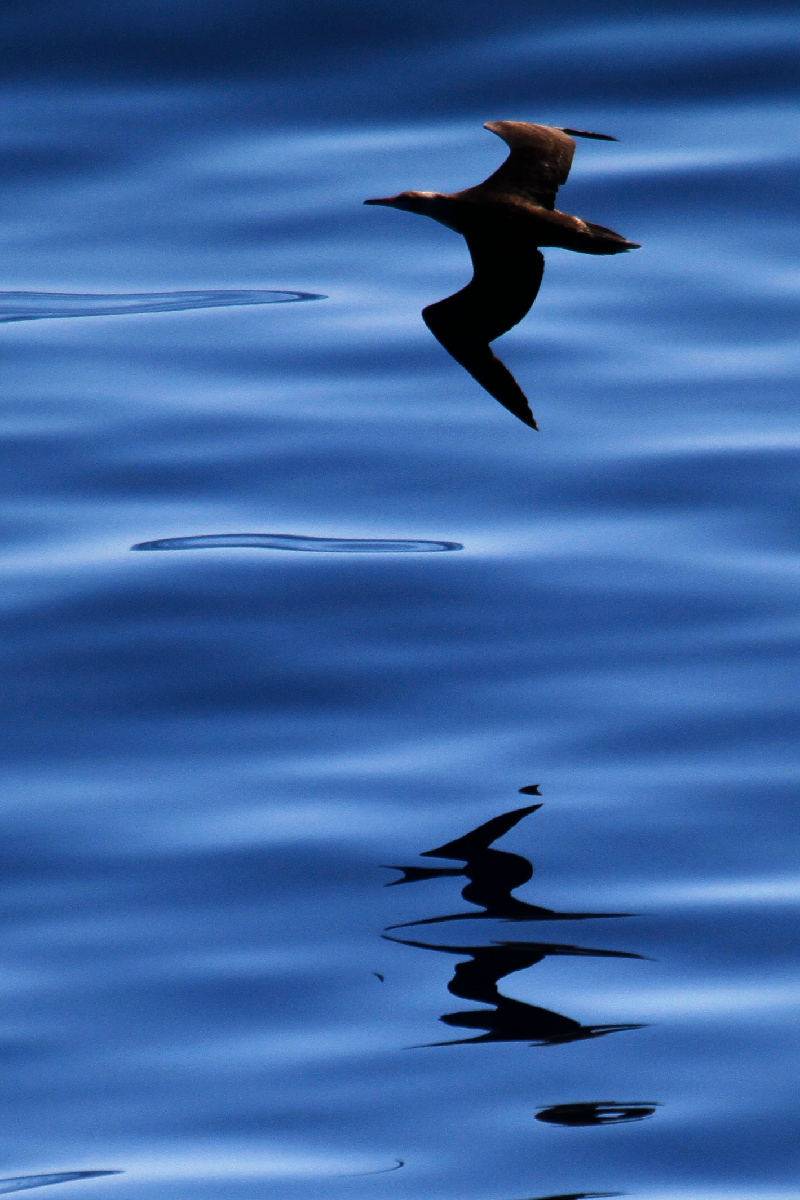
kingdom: Animalia
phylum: Chordata
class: Aves
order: Suliformes
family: Sulidae
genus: Sula
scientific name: Sula sula
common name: Red-footed booby
